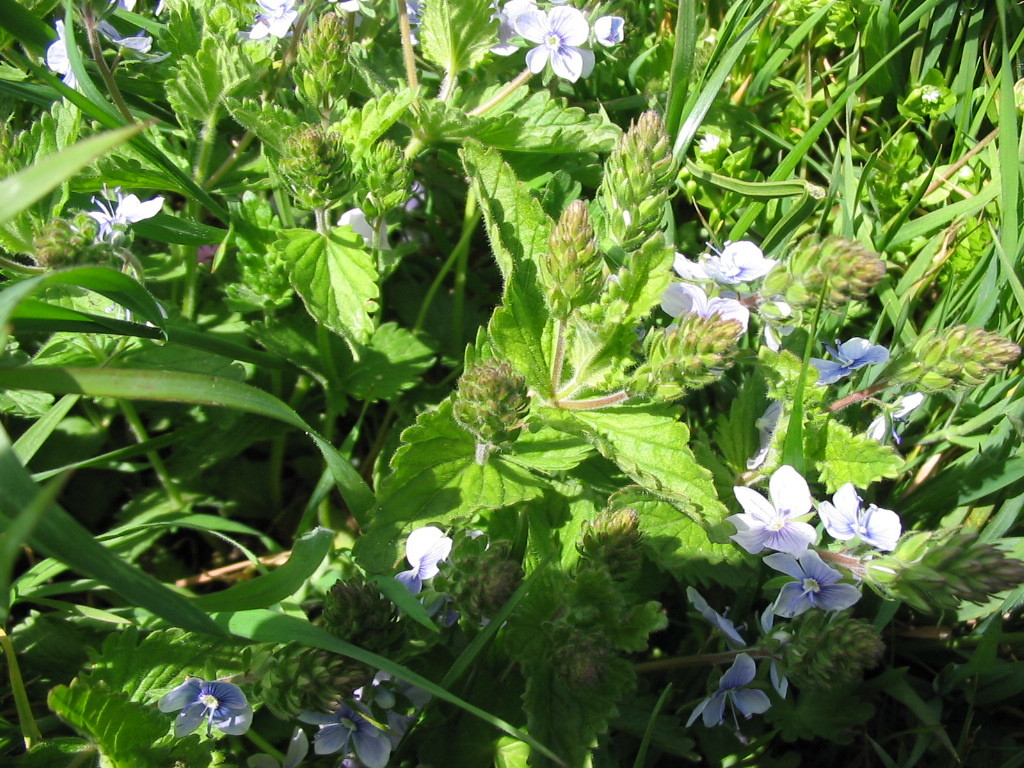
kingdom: Plantae
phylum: Tracheophyta
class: Magnoliopsida
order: Lamiales
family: Plantaginaceae
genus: Veronica
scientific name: Veronica chamaedrys
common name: Germander speedwell
